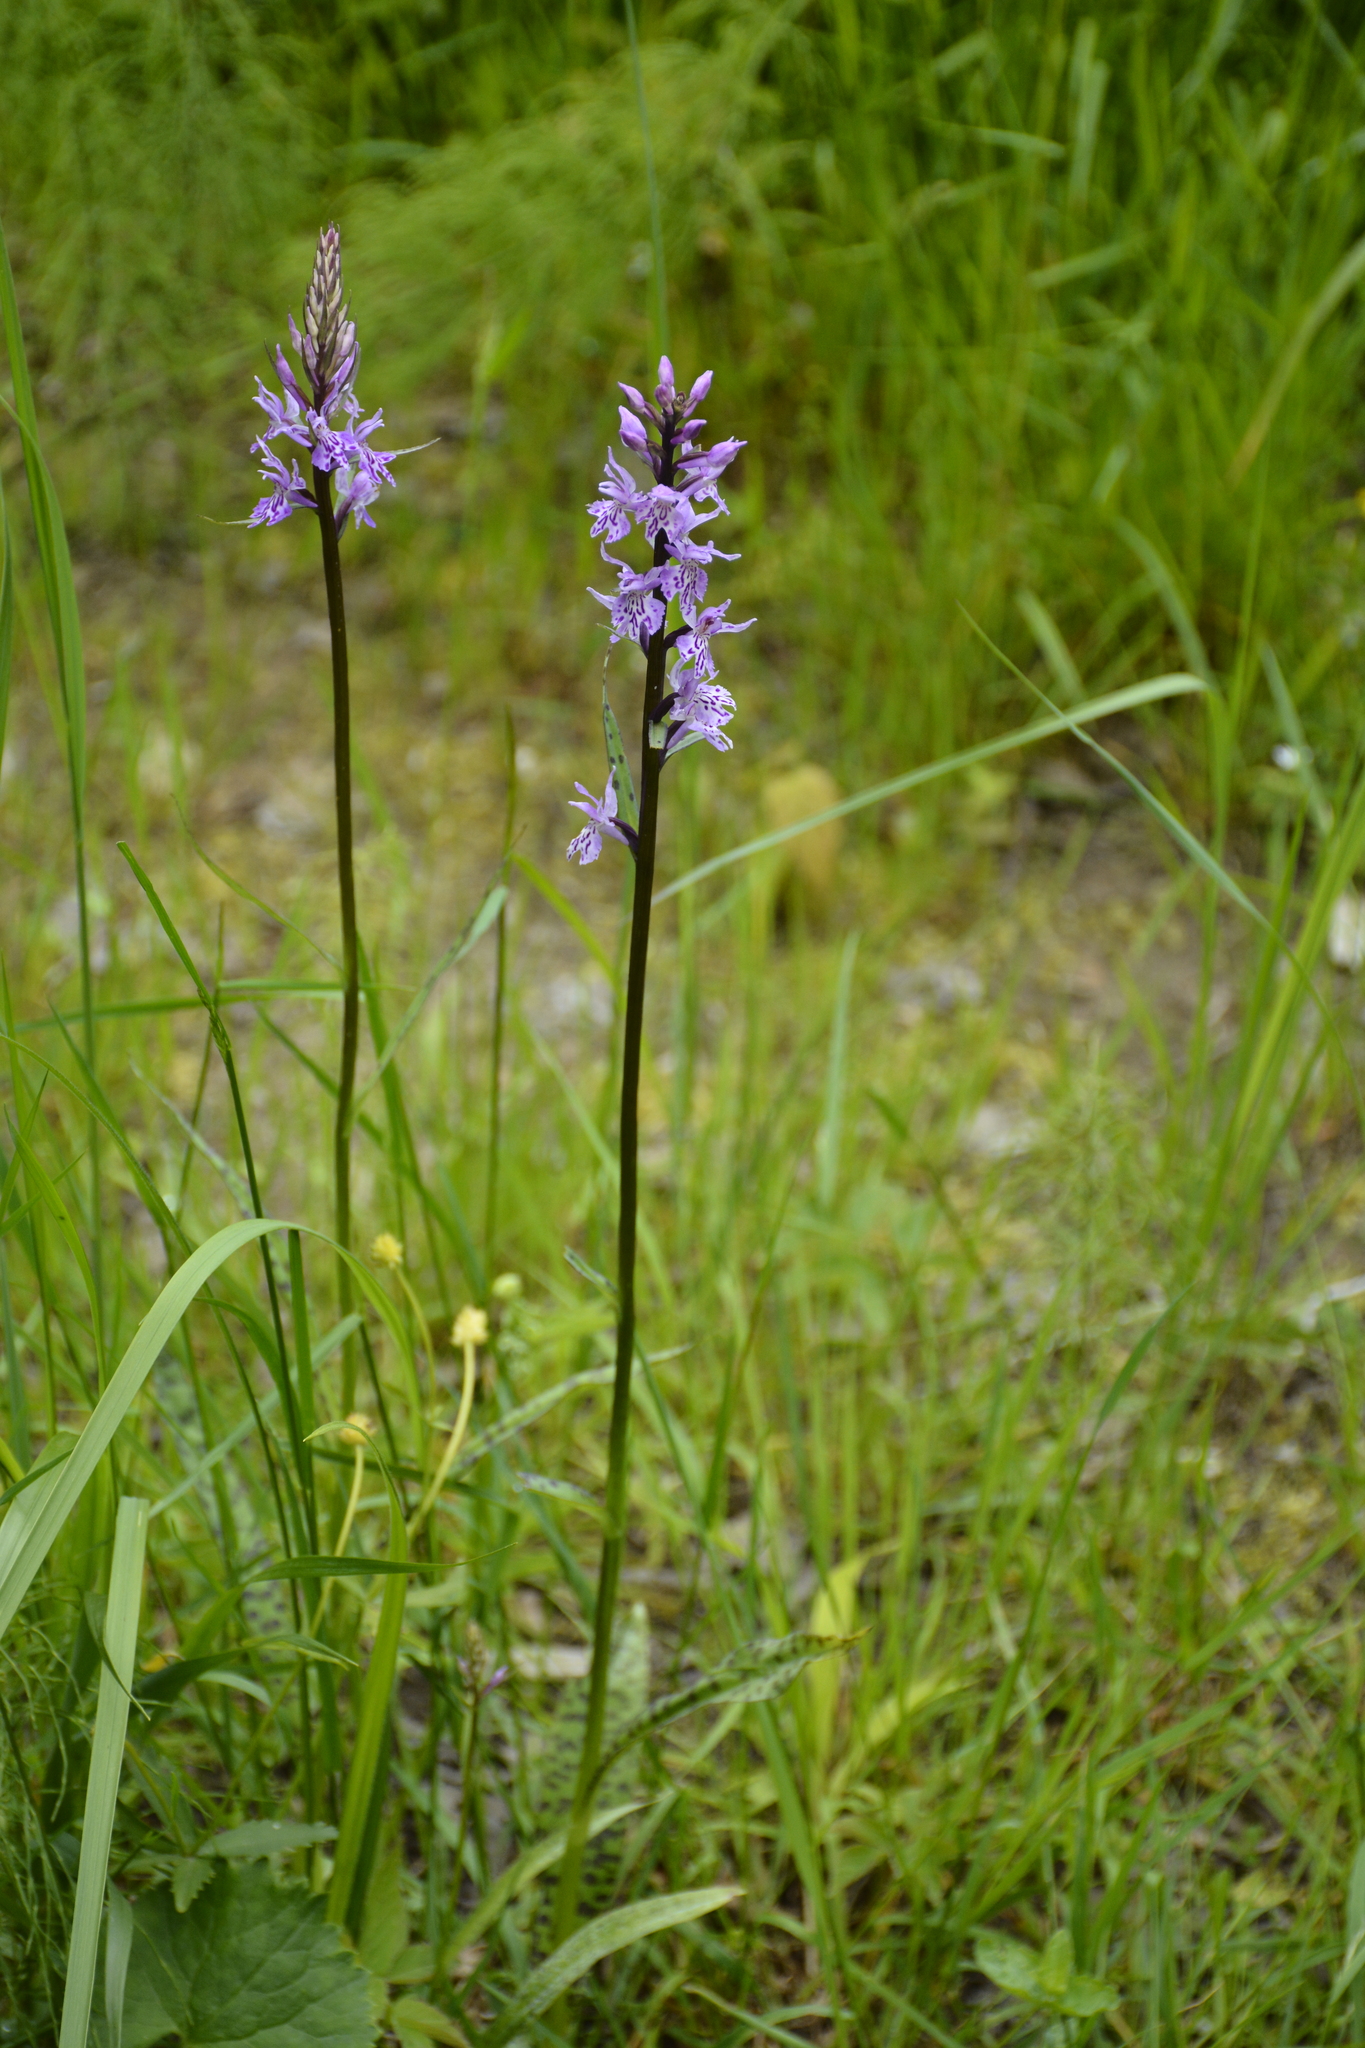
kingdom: Plantae
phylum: Tracheophyta
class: Liliopsida
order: Asparagales
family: Orchidaceae
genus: Dactylorhiza
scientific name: Dactylorhiza maculata
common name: Heath spotted-orchid
